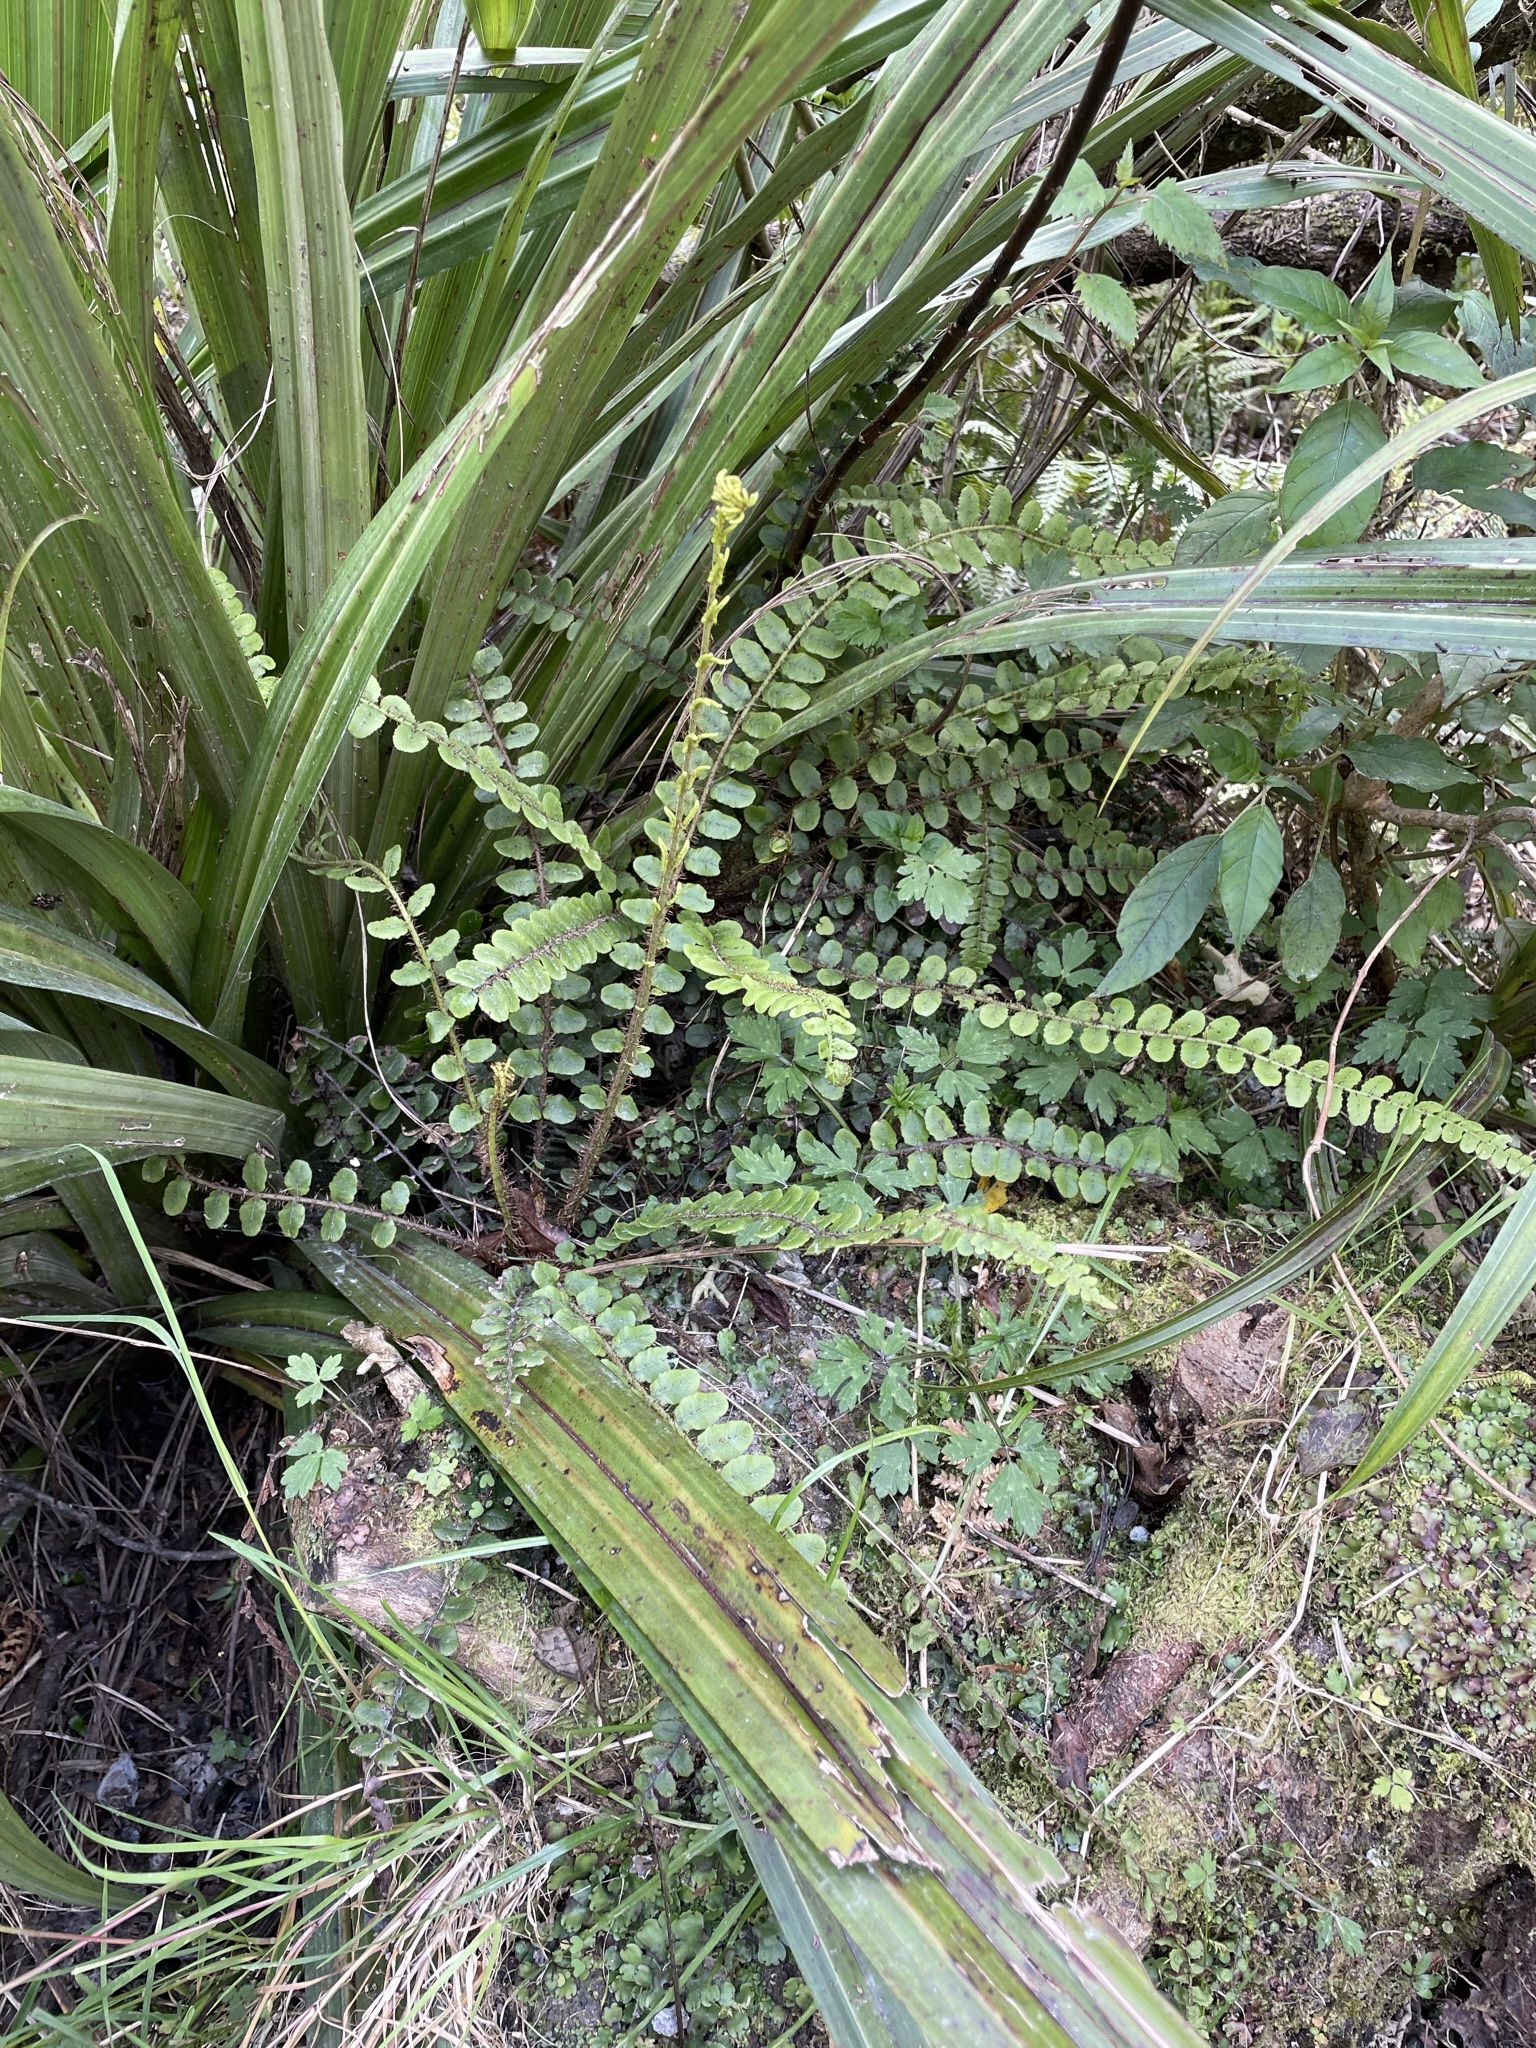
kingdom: Plantae
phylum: Tracheophyta
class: Polypodiopsida
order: Polypodiales
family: Blechnaceae
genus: Cranfillia
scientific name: Cranfillia fluviatilis
